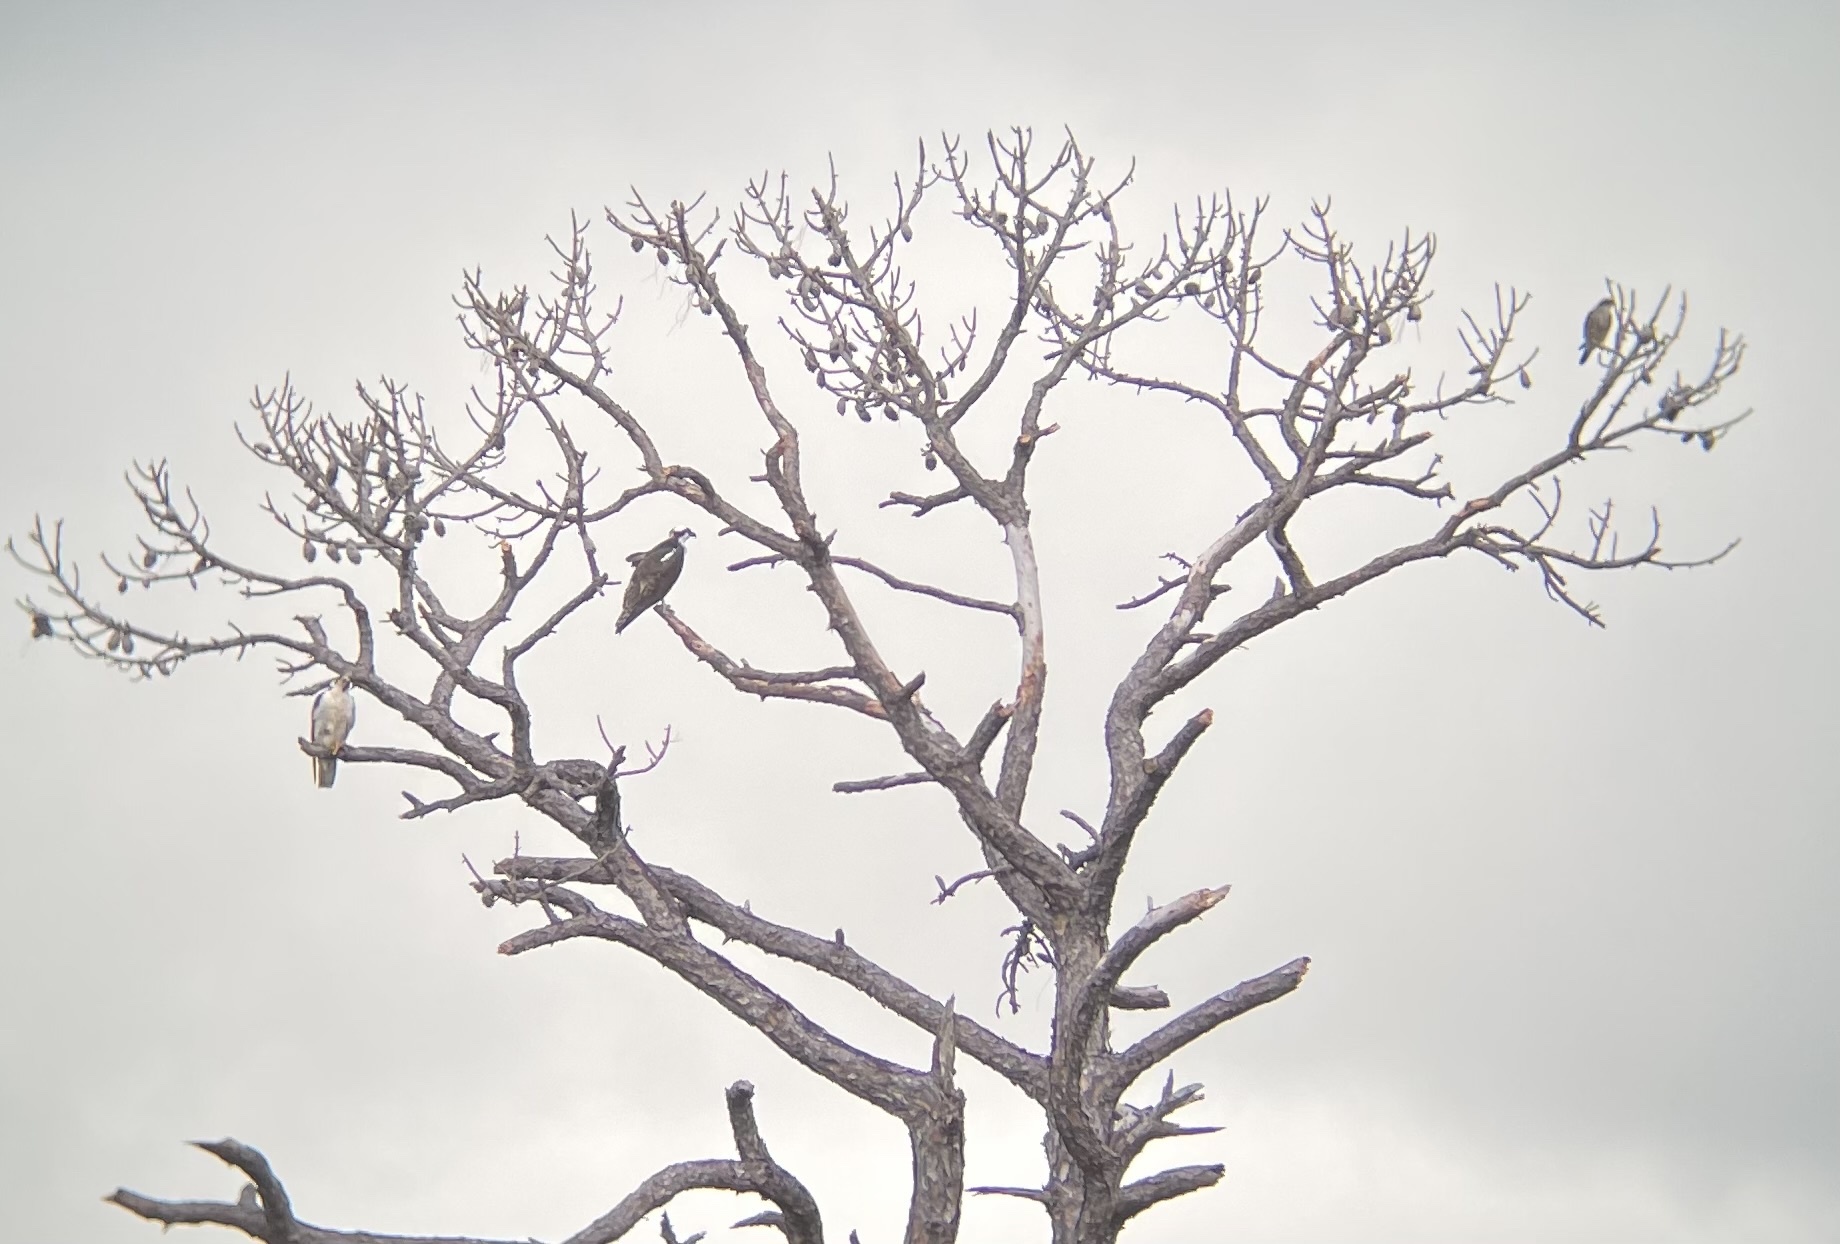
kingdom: Animalia
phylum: Chordata
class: Aves
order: Falconiformes
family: Falconidae
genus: Falco
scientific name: Falco columbarius
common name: Merlin
